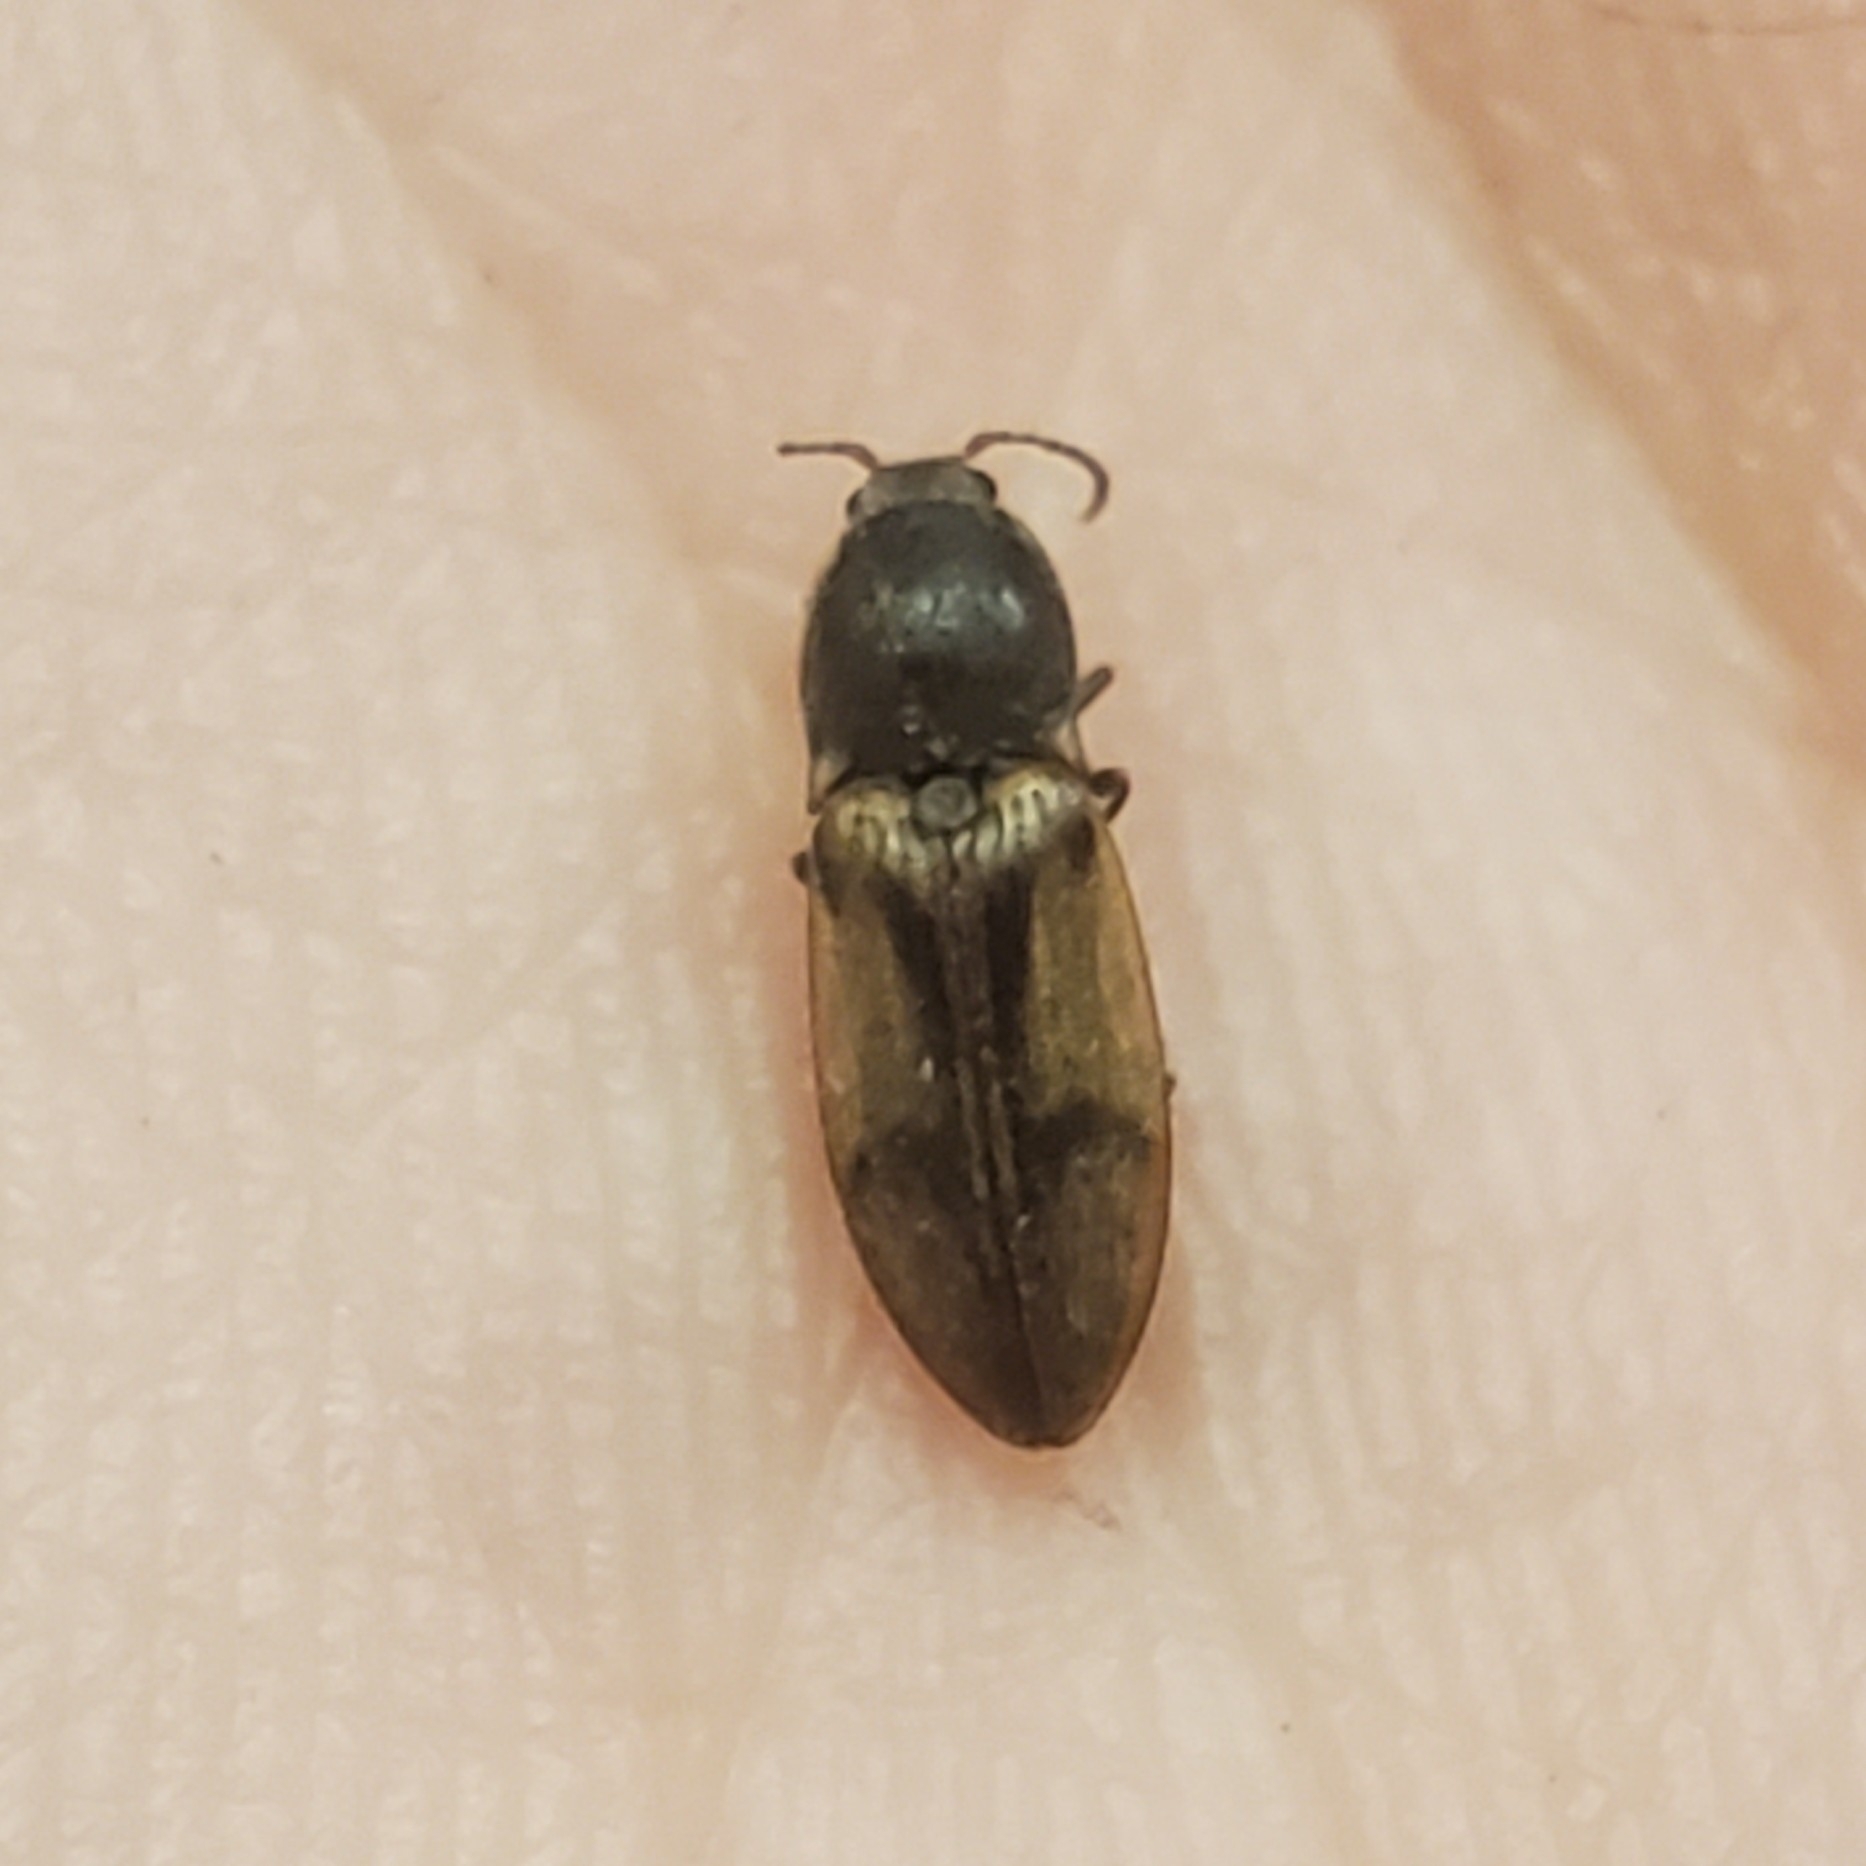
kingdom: Animalia
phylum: Arthropoda
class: Insecta
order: Coleoptera
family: Elateridae
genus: Stropenron
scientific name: Stropenron propola
